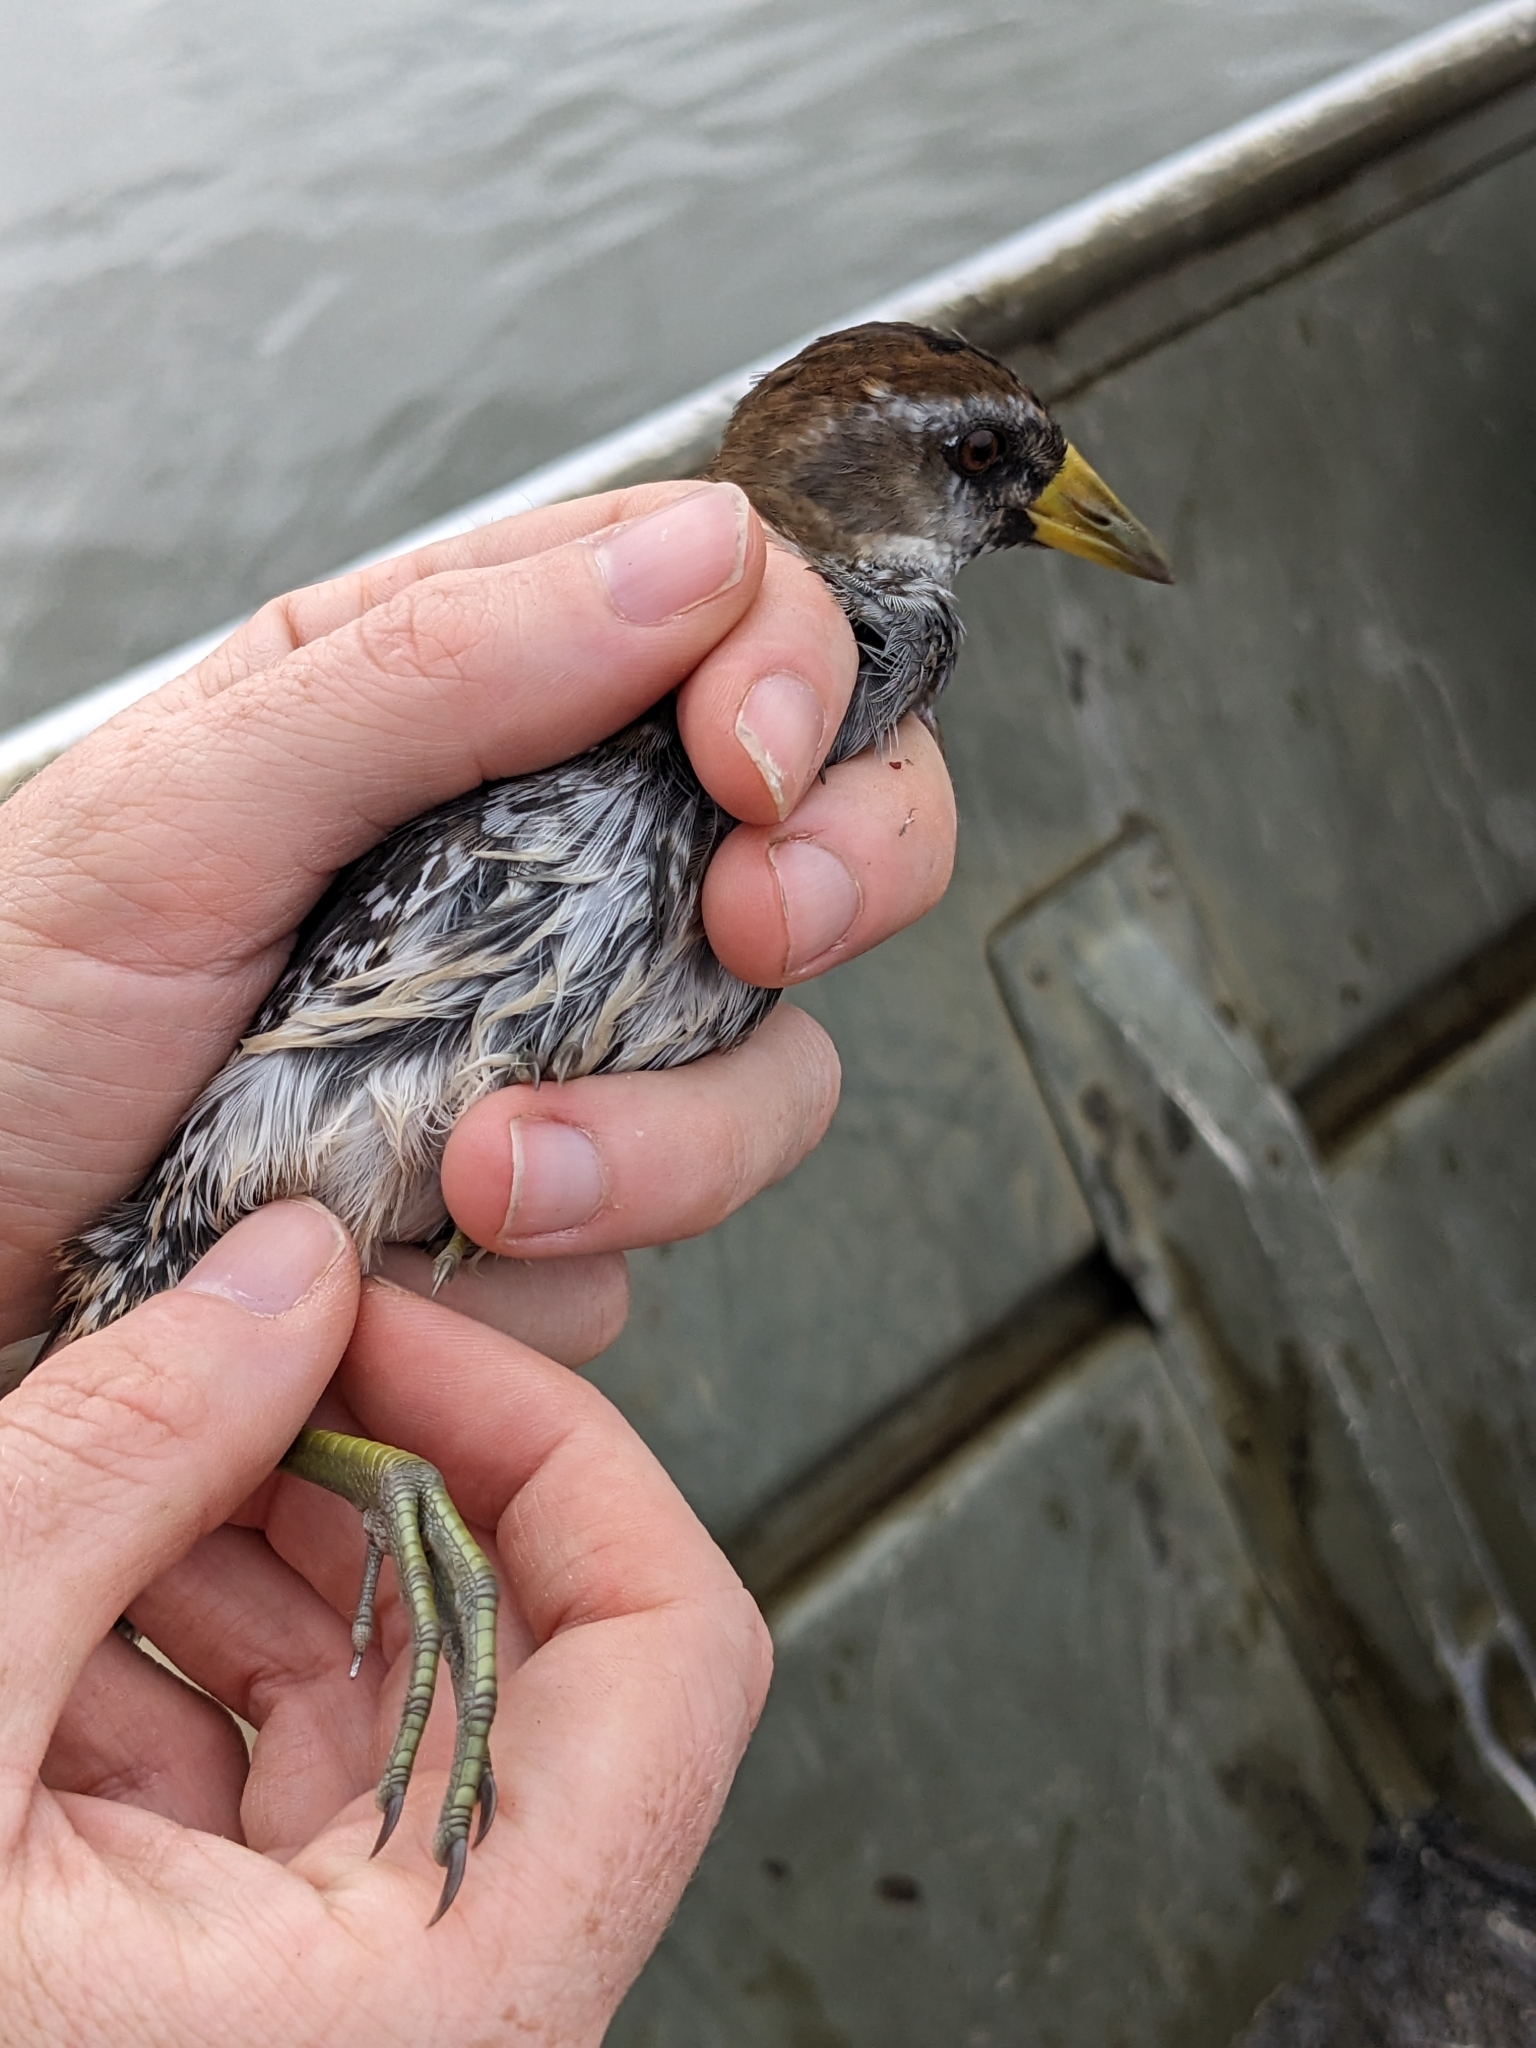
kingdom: Animalia
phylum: Chordata
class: Aves
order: Gruiformes
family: Rallidae
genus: Porzana
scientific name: Porzana carolina
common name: Sora
